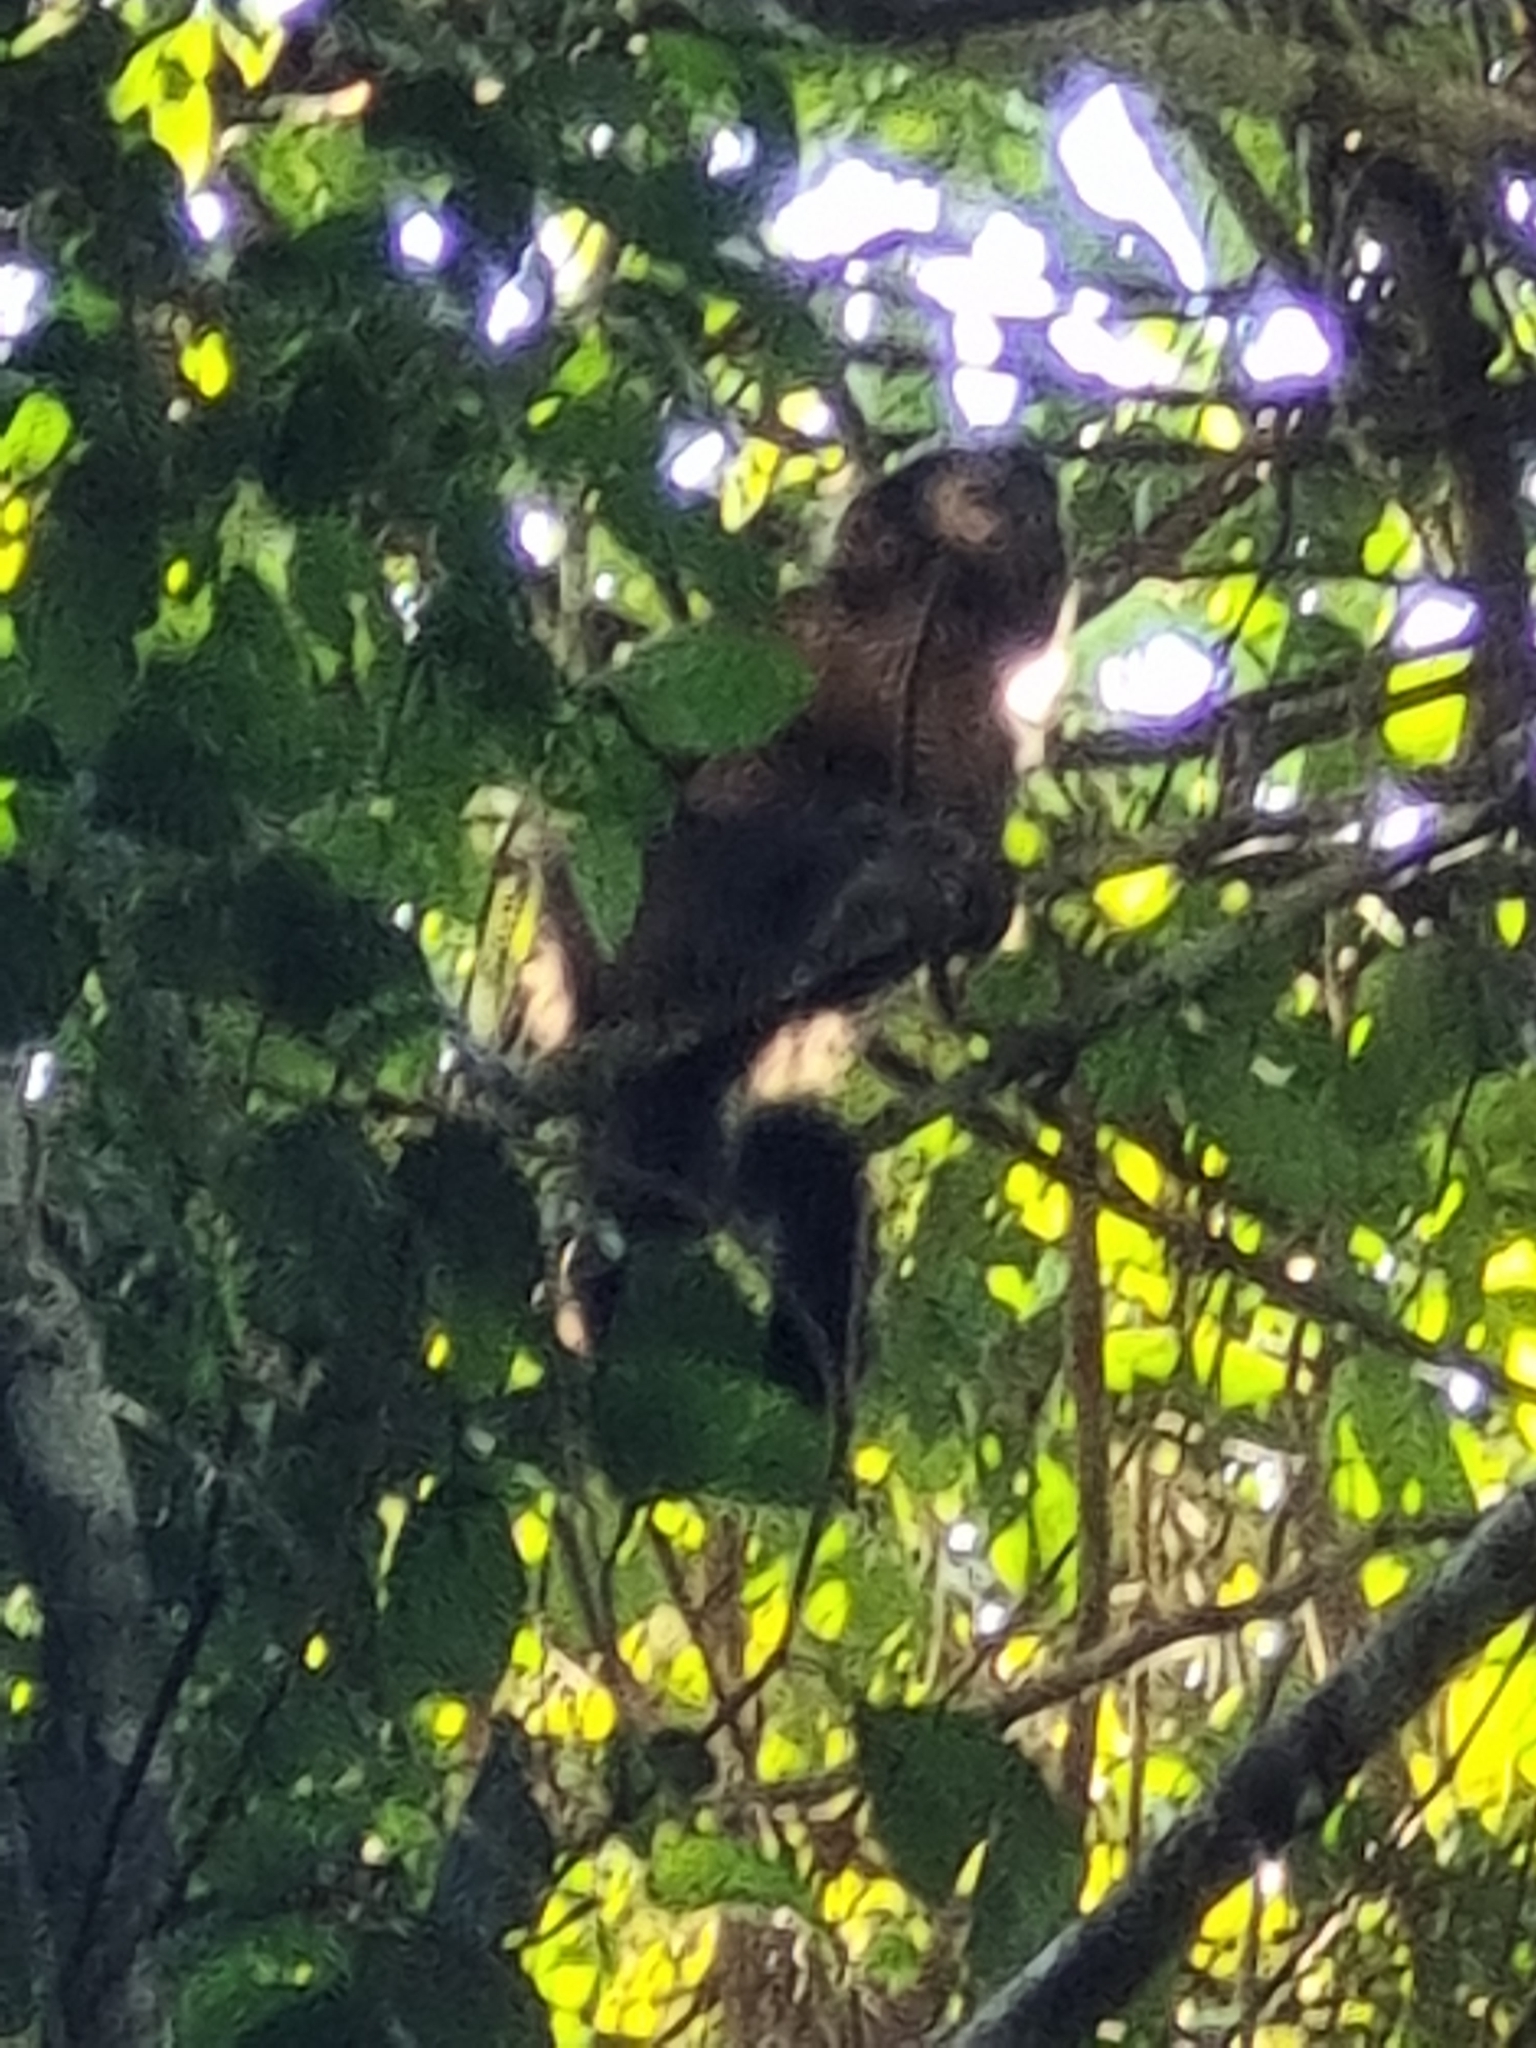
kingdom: Animalia
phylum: Chordata
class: Mammalia
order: Primates
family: Cebidae
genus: Sapajus
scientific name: Sapajus nigritus
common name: Black capuchin
